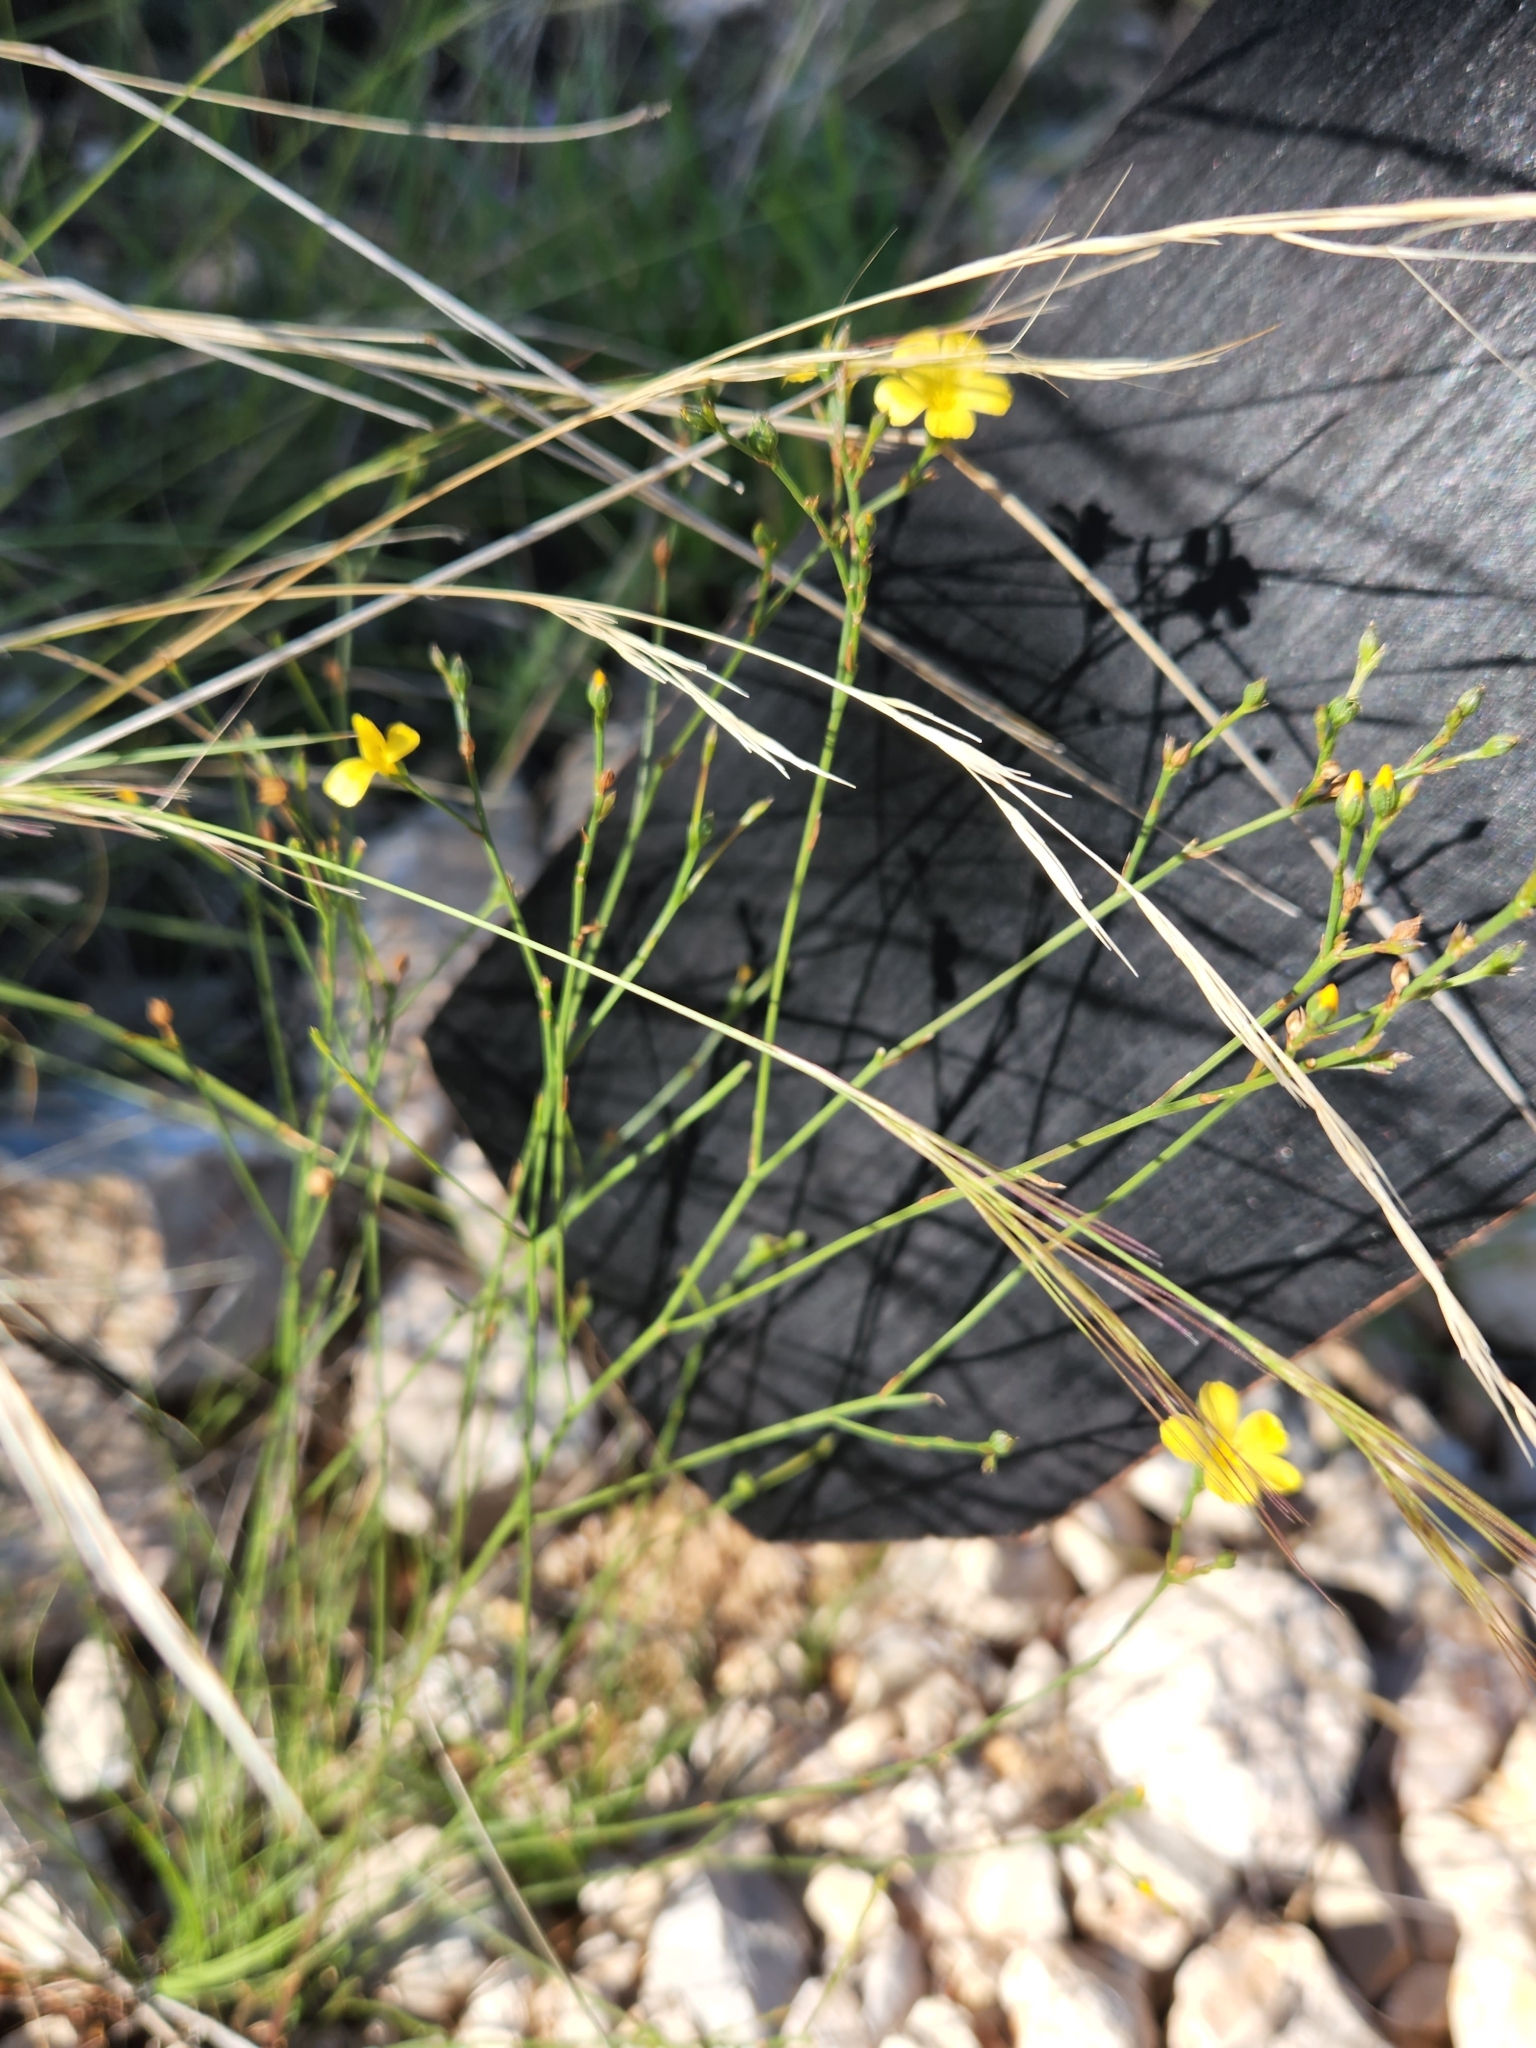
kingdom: Plantae
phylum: Tracheophyta
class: Magnoliopsida
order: Malpighiales
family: Linaceae
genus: Linum
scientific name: Linum rupestre
